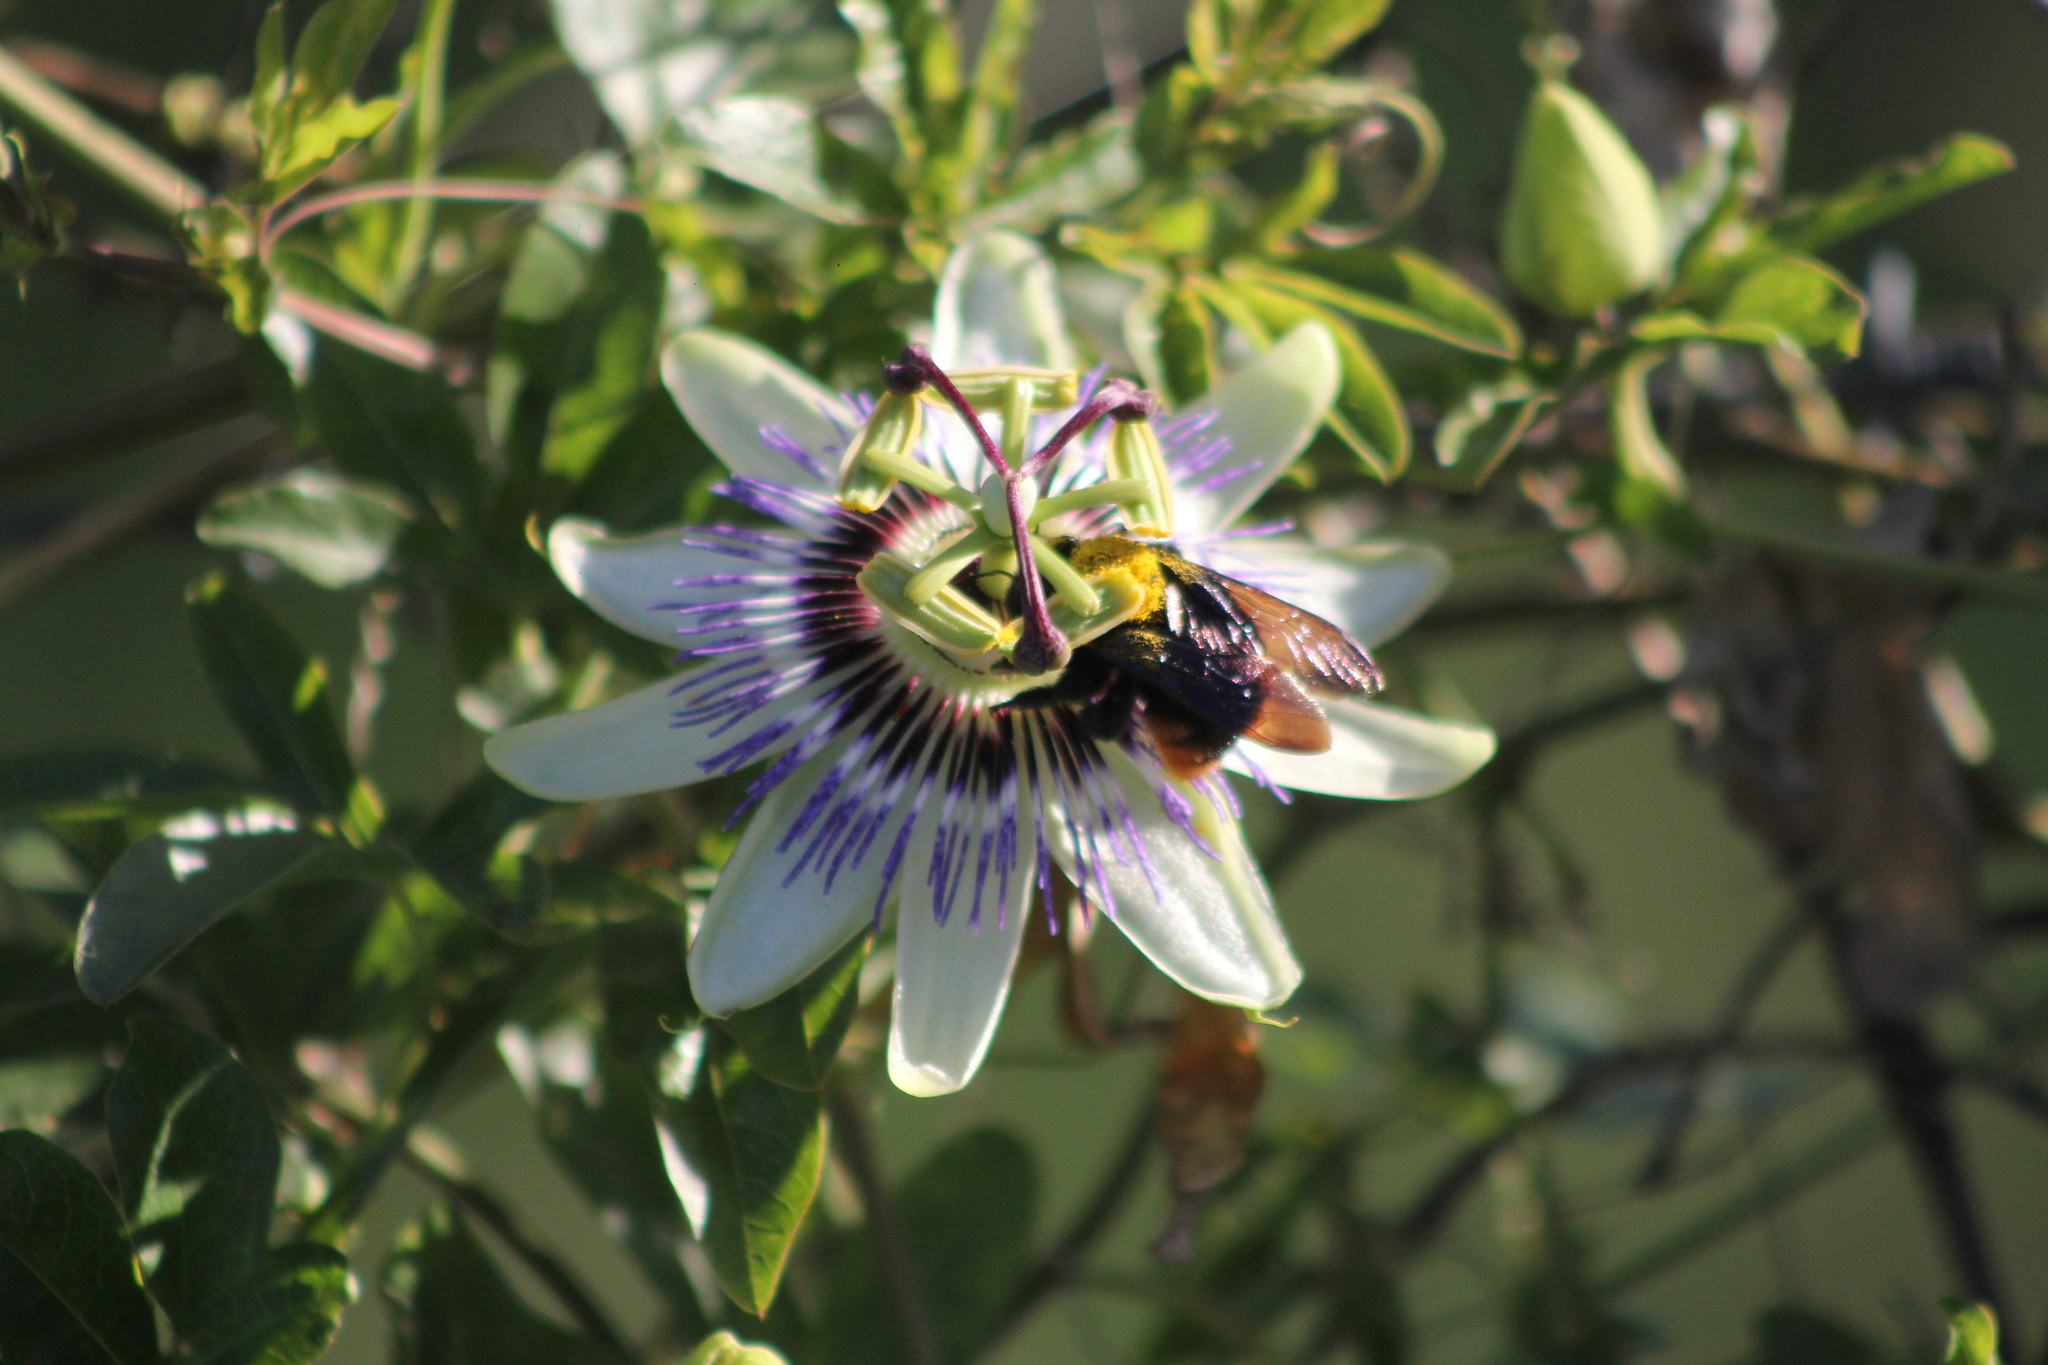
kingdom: Animalia
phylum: Arthropoda
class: Insecta
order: Hymenoptera
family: Apidae
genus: Xylocopa
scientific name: Xylocopa augusti
